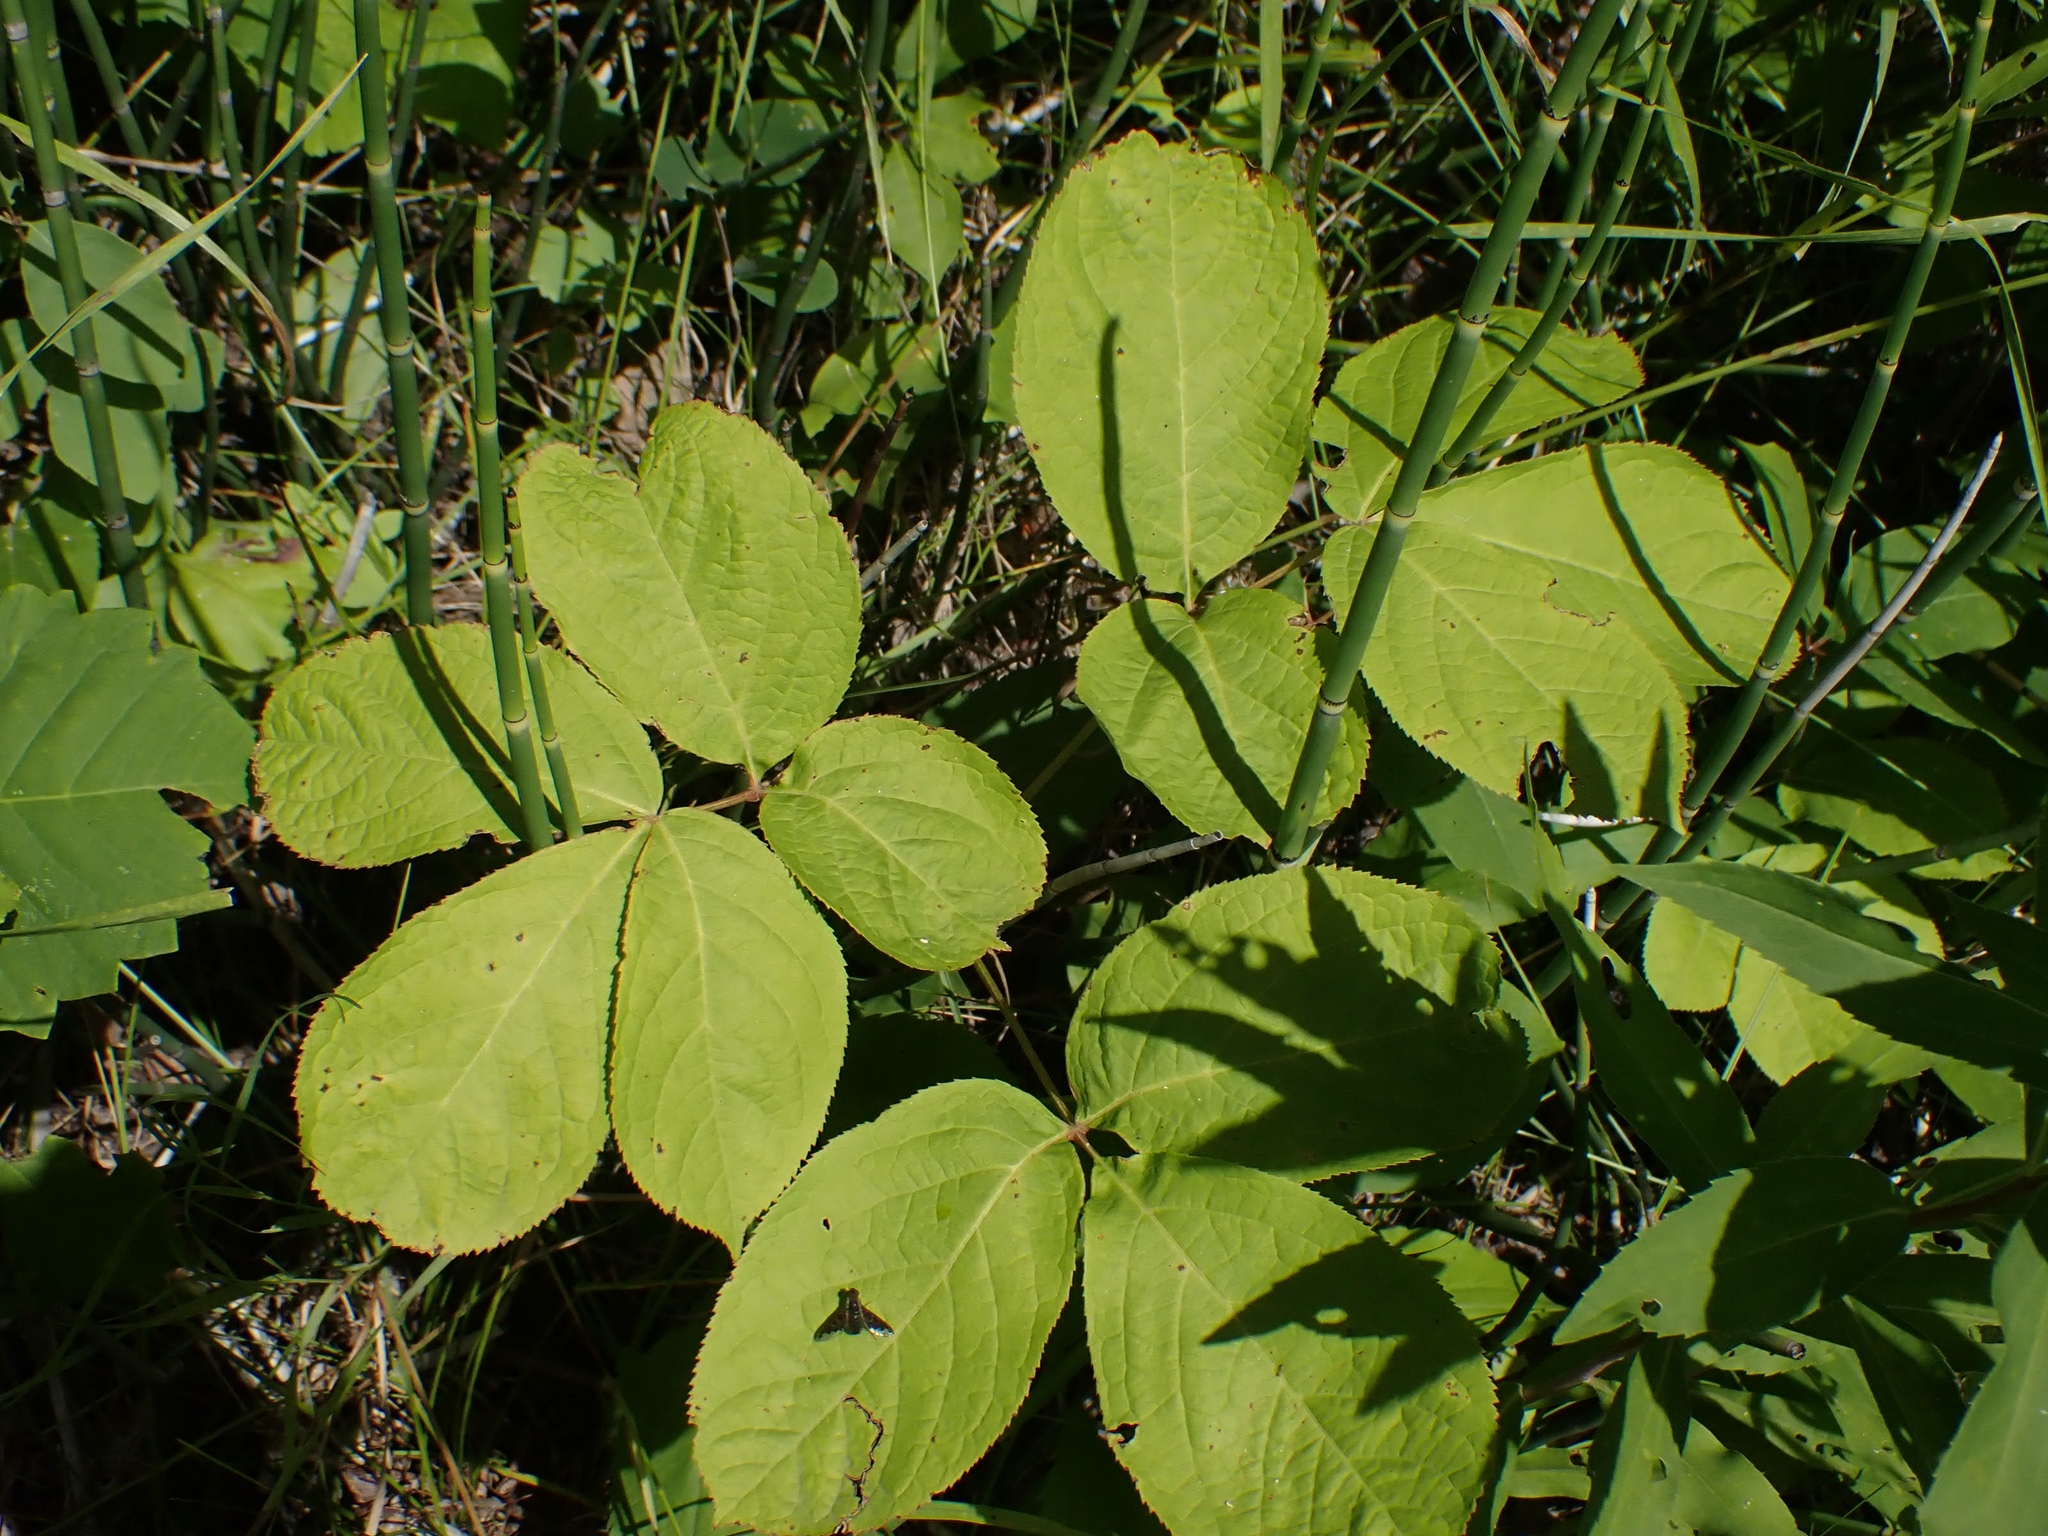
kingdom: Plantae
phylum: Tracheophyta
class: Magnoliopsida
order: Apiales
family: Araliaceae
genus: Aralia
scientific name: Aralia nudicaulis
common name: Wild sarsaparilla
